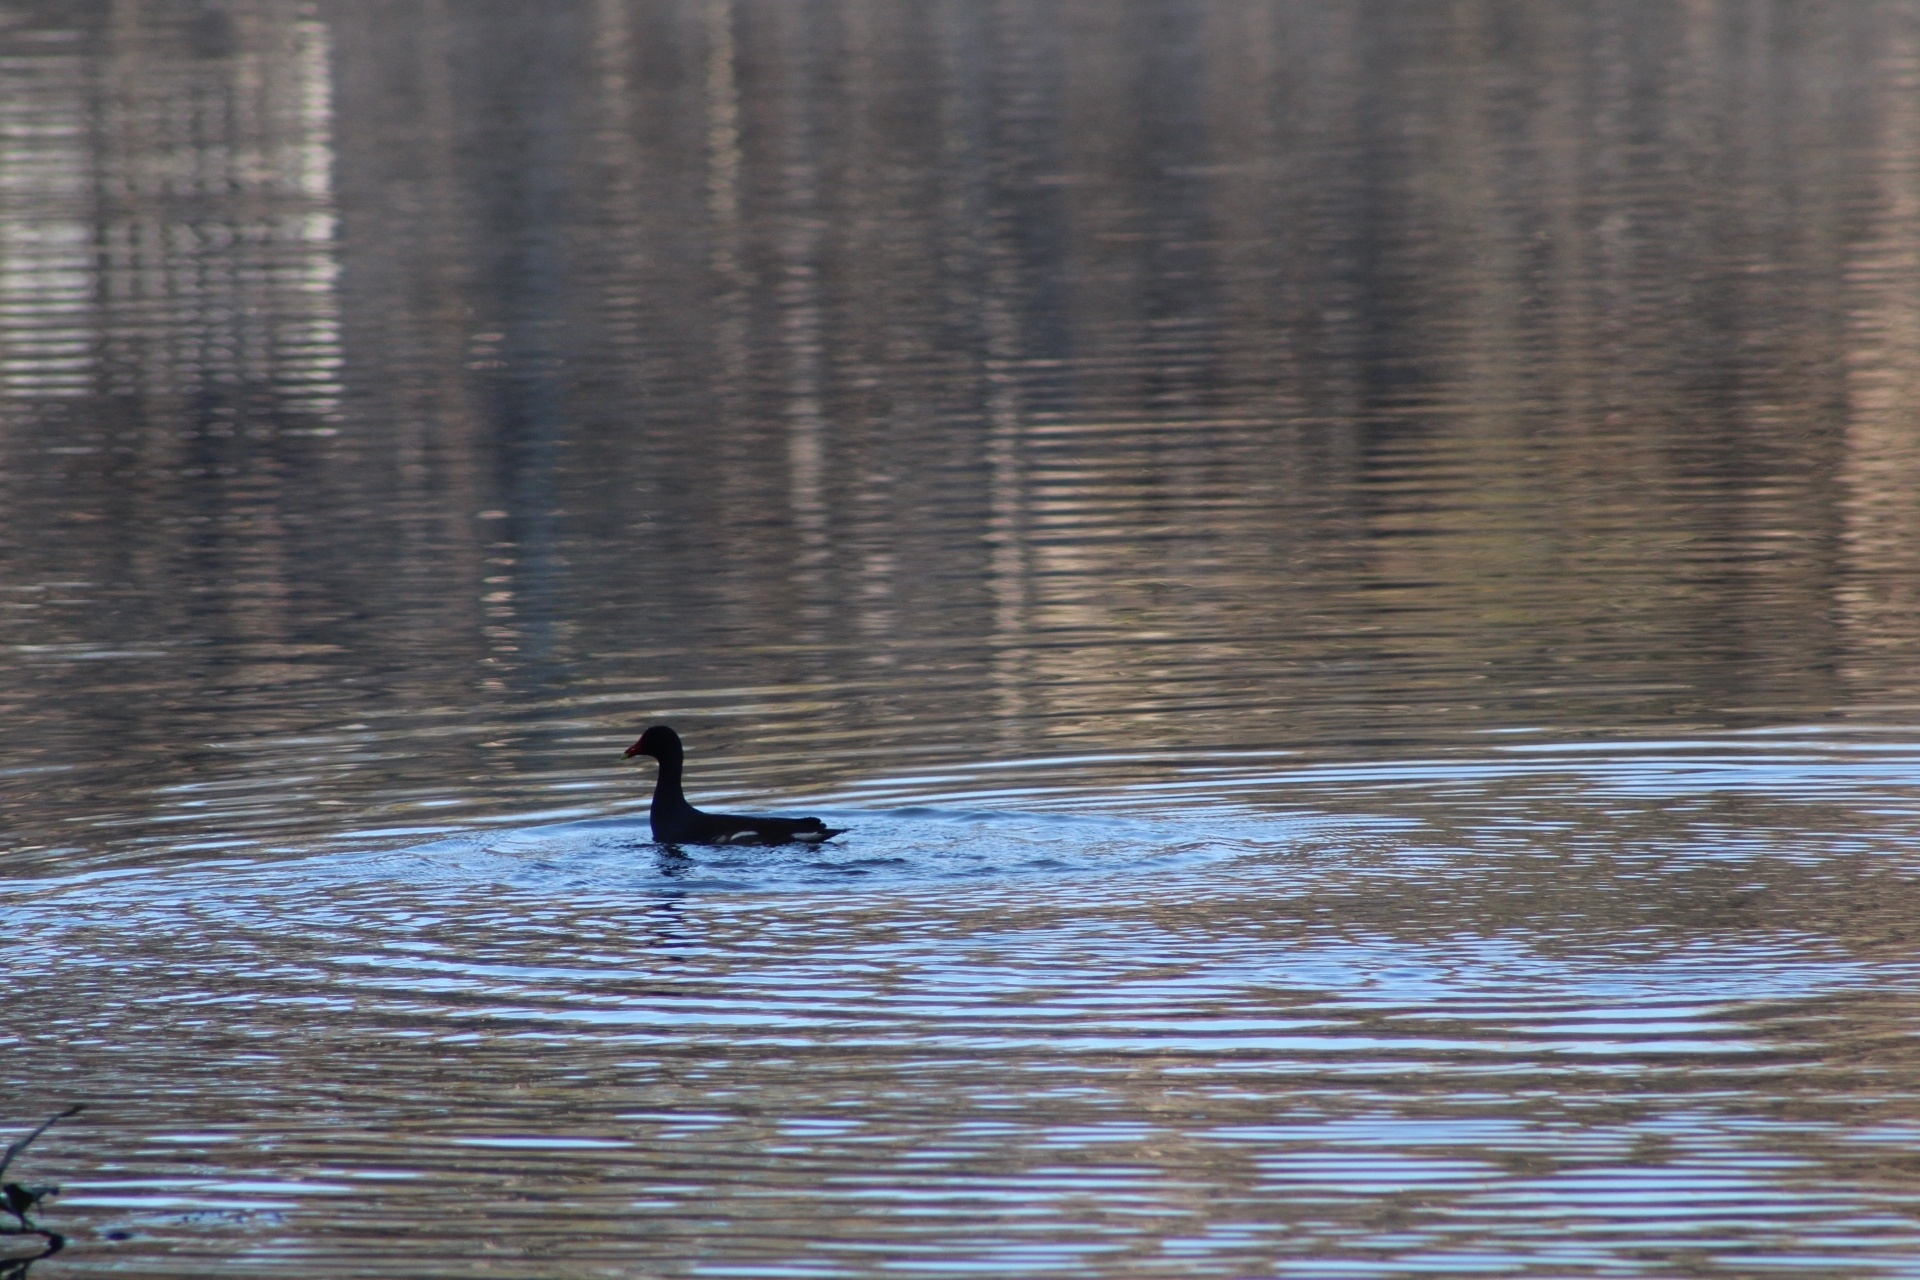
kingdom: Animalia
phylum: Chordata
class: Aves
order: Gruiformes
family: Rallidae
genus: Gallinula
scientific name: Gallinula chloropus
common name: Common moorhen
